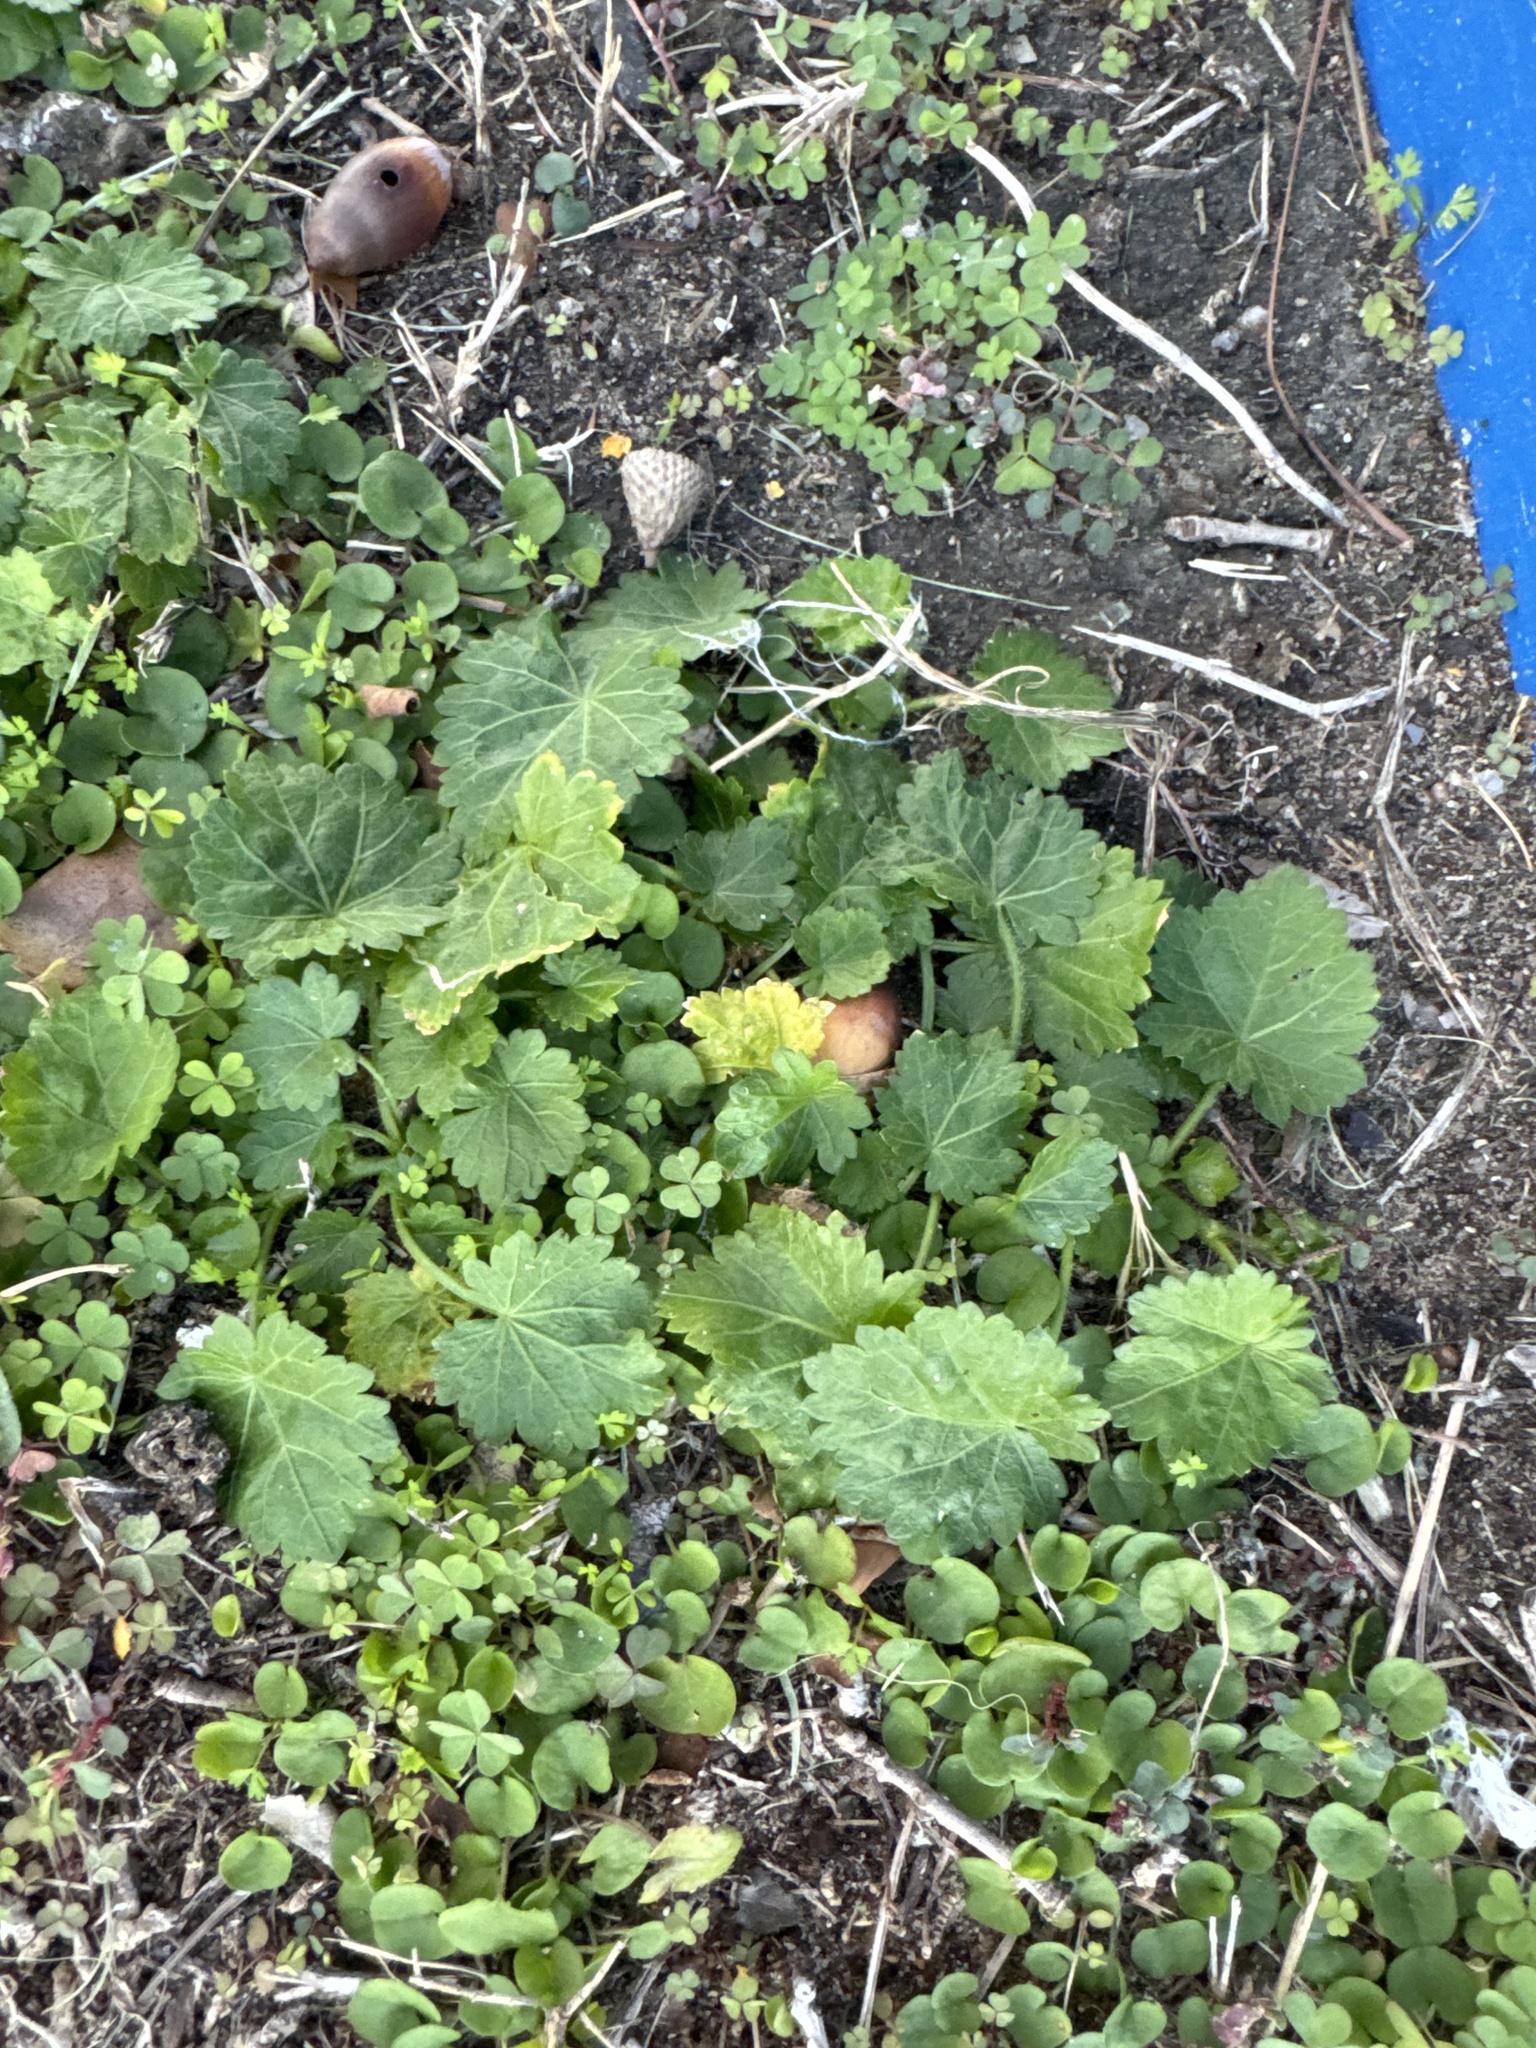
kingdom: Plantae
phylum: Tracheophyta
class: Magnoliopsida
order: Malvales
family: Malvaceae
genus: Modiola
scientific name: Modiola caroliniana
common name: Carolina bristlemallow
